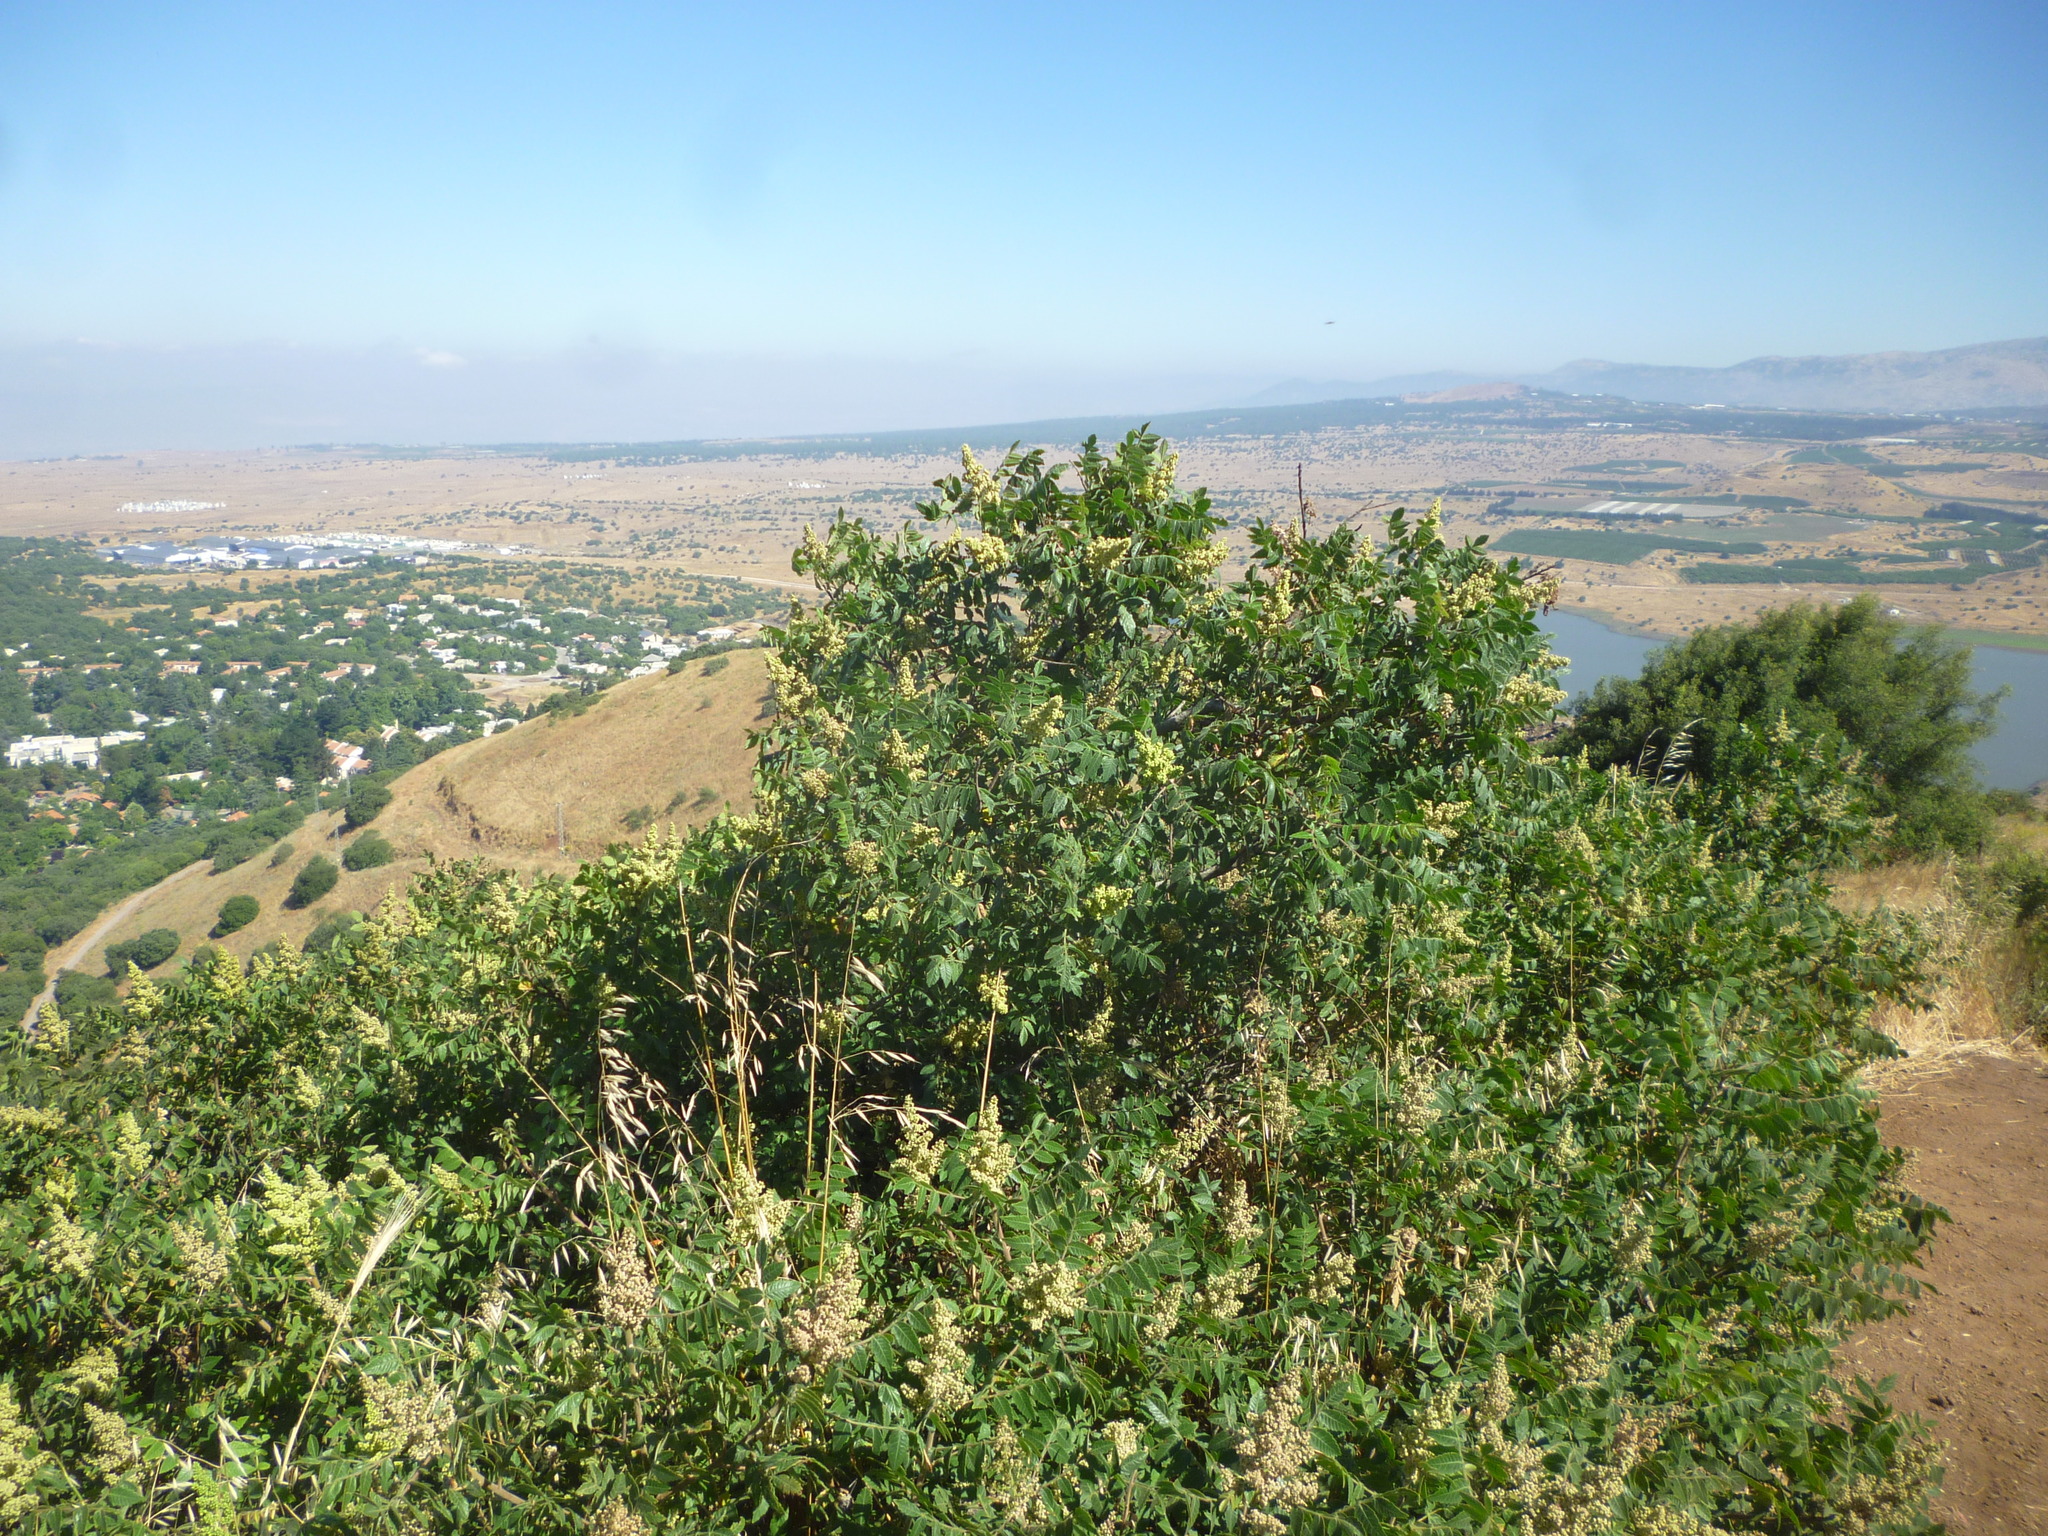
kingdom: Plantae
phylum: Tracheophyta
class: Magnoliopsida
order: Sapindales
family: Anacardiaceae
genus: Rhus
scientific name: Rhus coriaria
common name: Tanner's sumach
